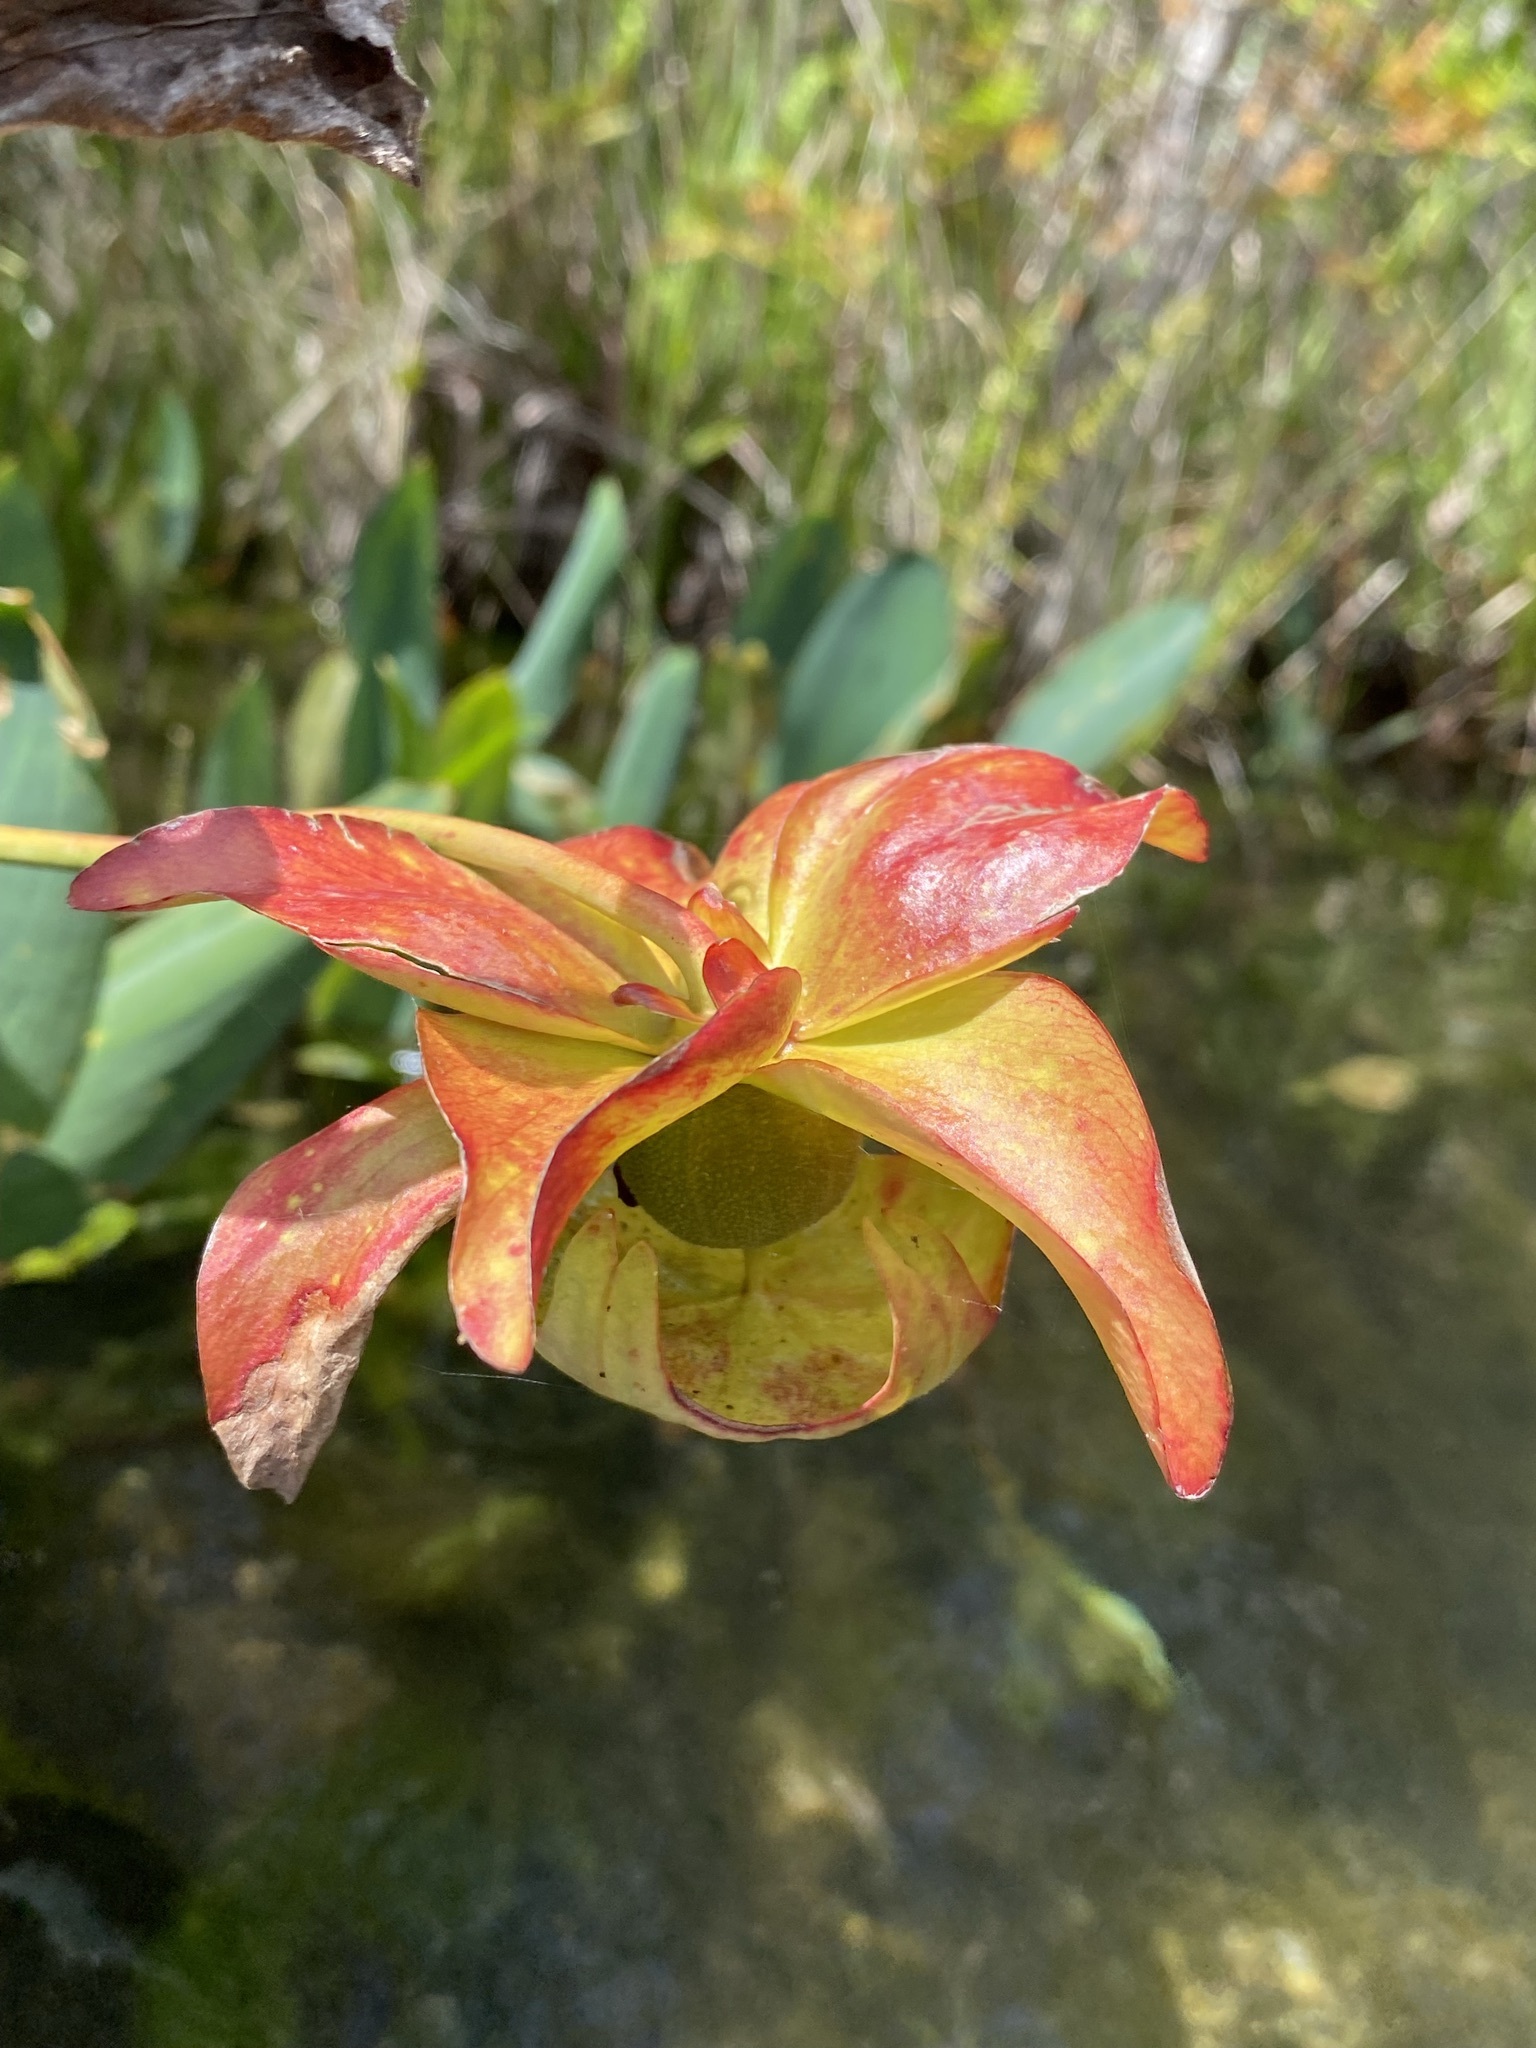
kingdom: Plantae
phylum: Tracheophyta
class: Magnoliopsida
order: Ericales
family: Sarraceniaceae
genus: Sarracenia
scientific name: Sarracenia leucophylla
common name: Purple trumpetleaf
